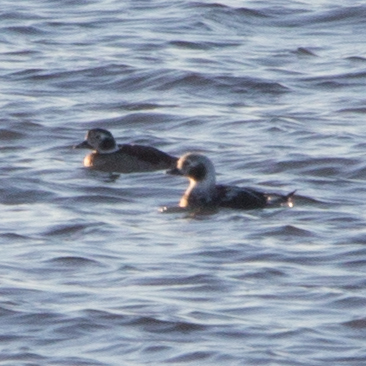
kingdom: Animalia
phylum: Chordata
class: Aves
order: Anseriformes
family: Anatidae
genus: Clangula
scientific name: Clangula hyemalis
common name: Long-tailed duck
